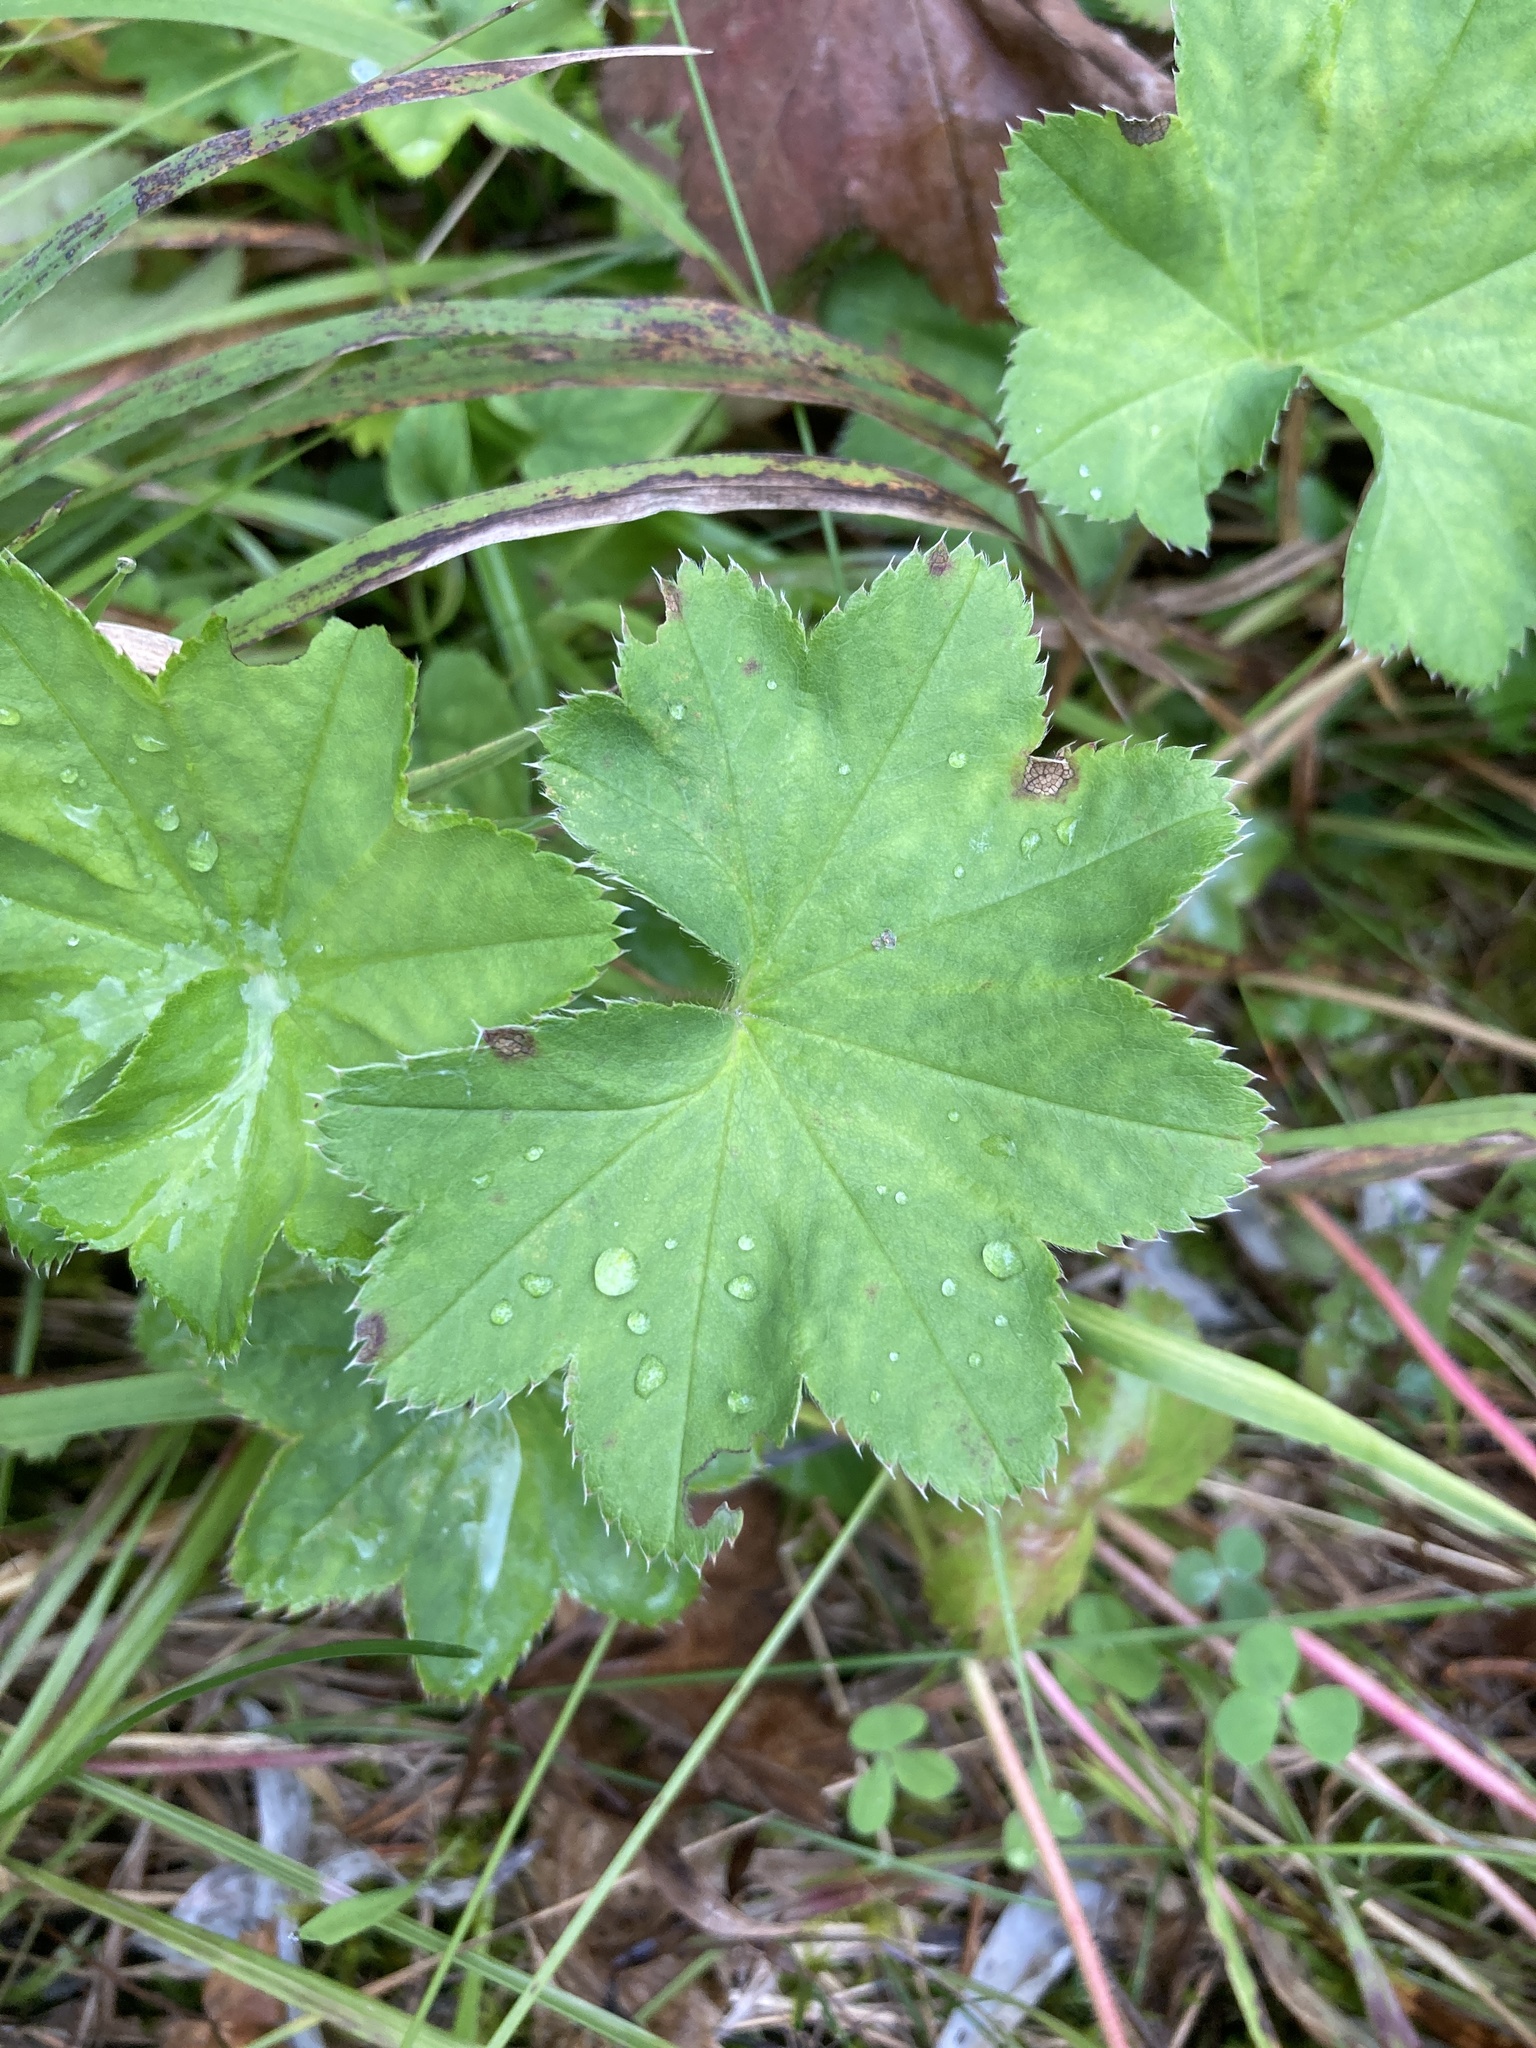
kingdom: Plantae
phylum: Tracheophyta
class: Magnoliopsida
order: Rosales
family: Rosaceae
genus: Alchemilla
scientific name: Alchemilla
